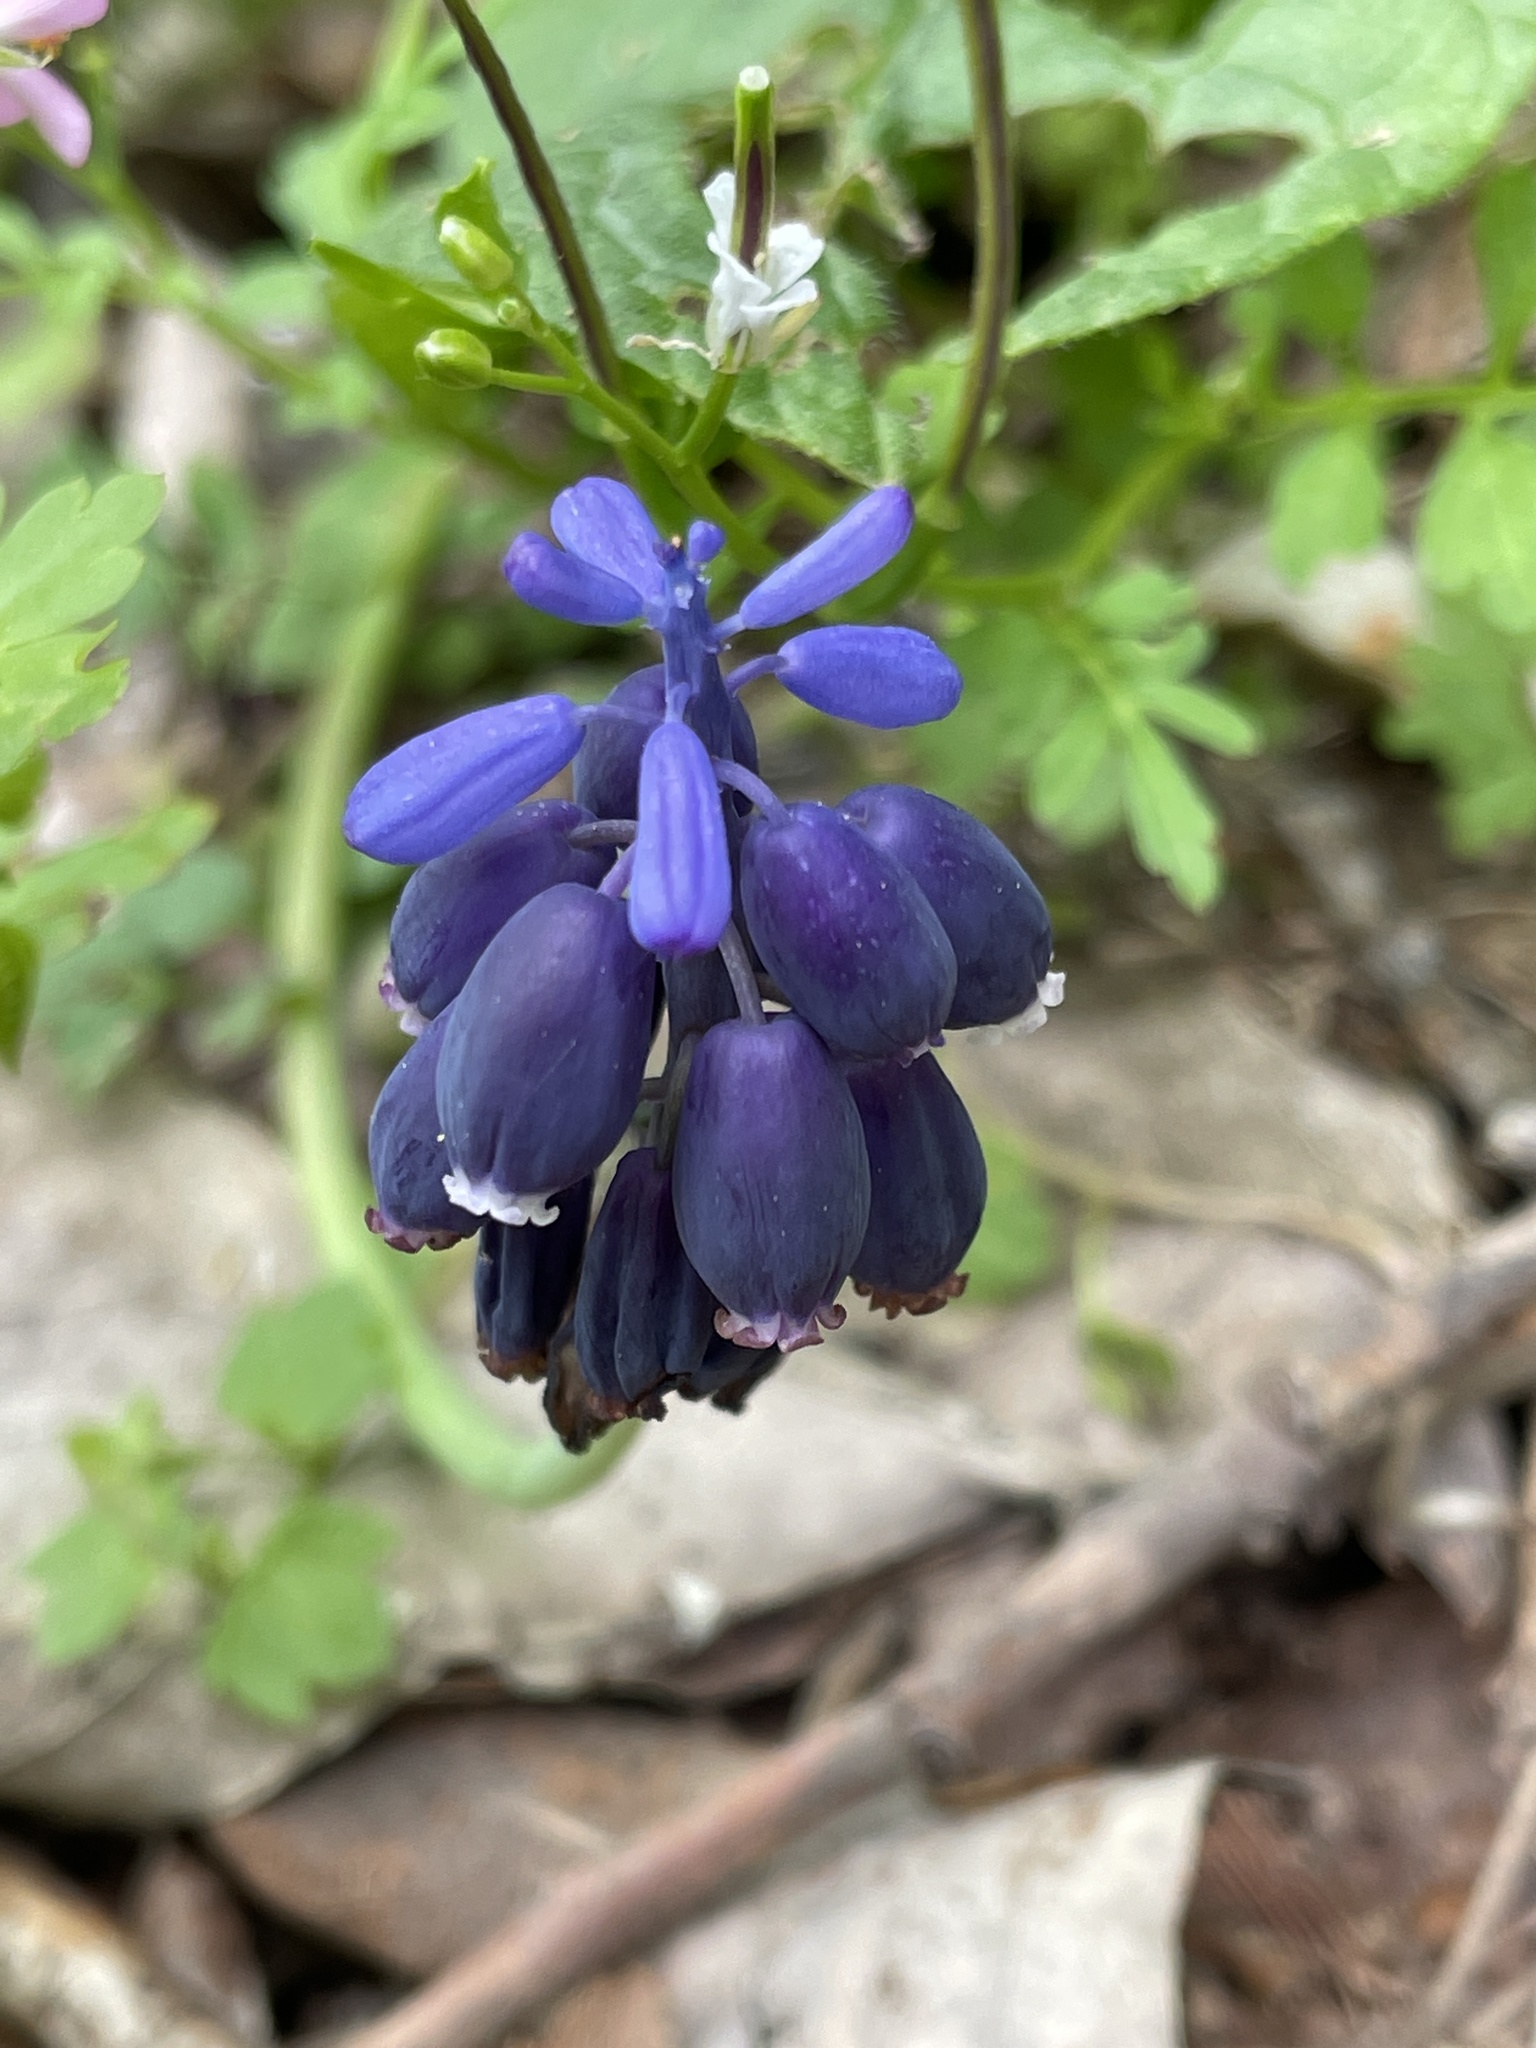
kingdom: Plantae
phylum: Tracheophyta
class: Liliopsida
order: Asparagales
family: Asparagaceae
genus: Muscari
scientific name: Muscari neglectum
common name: Grape-hyacinth
